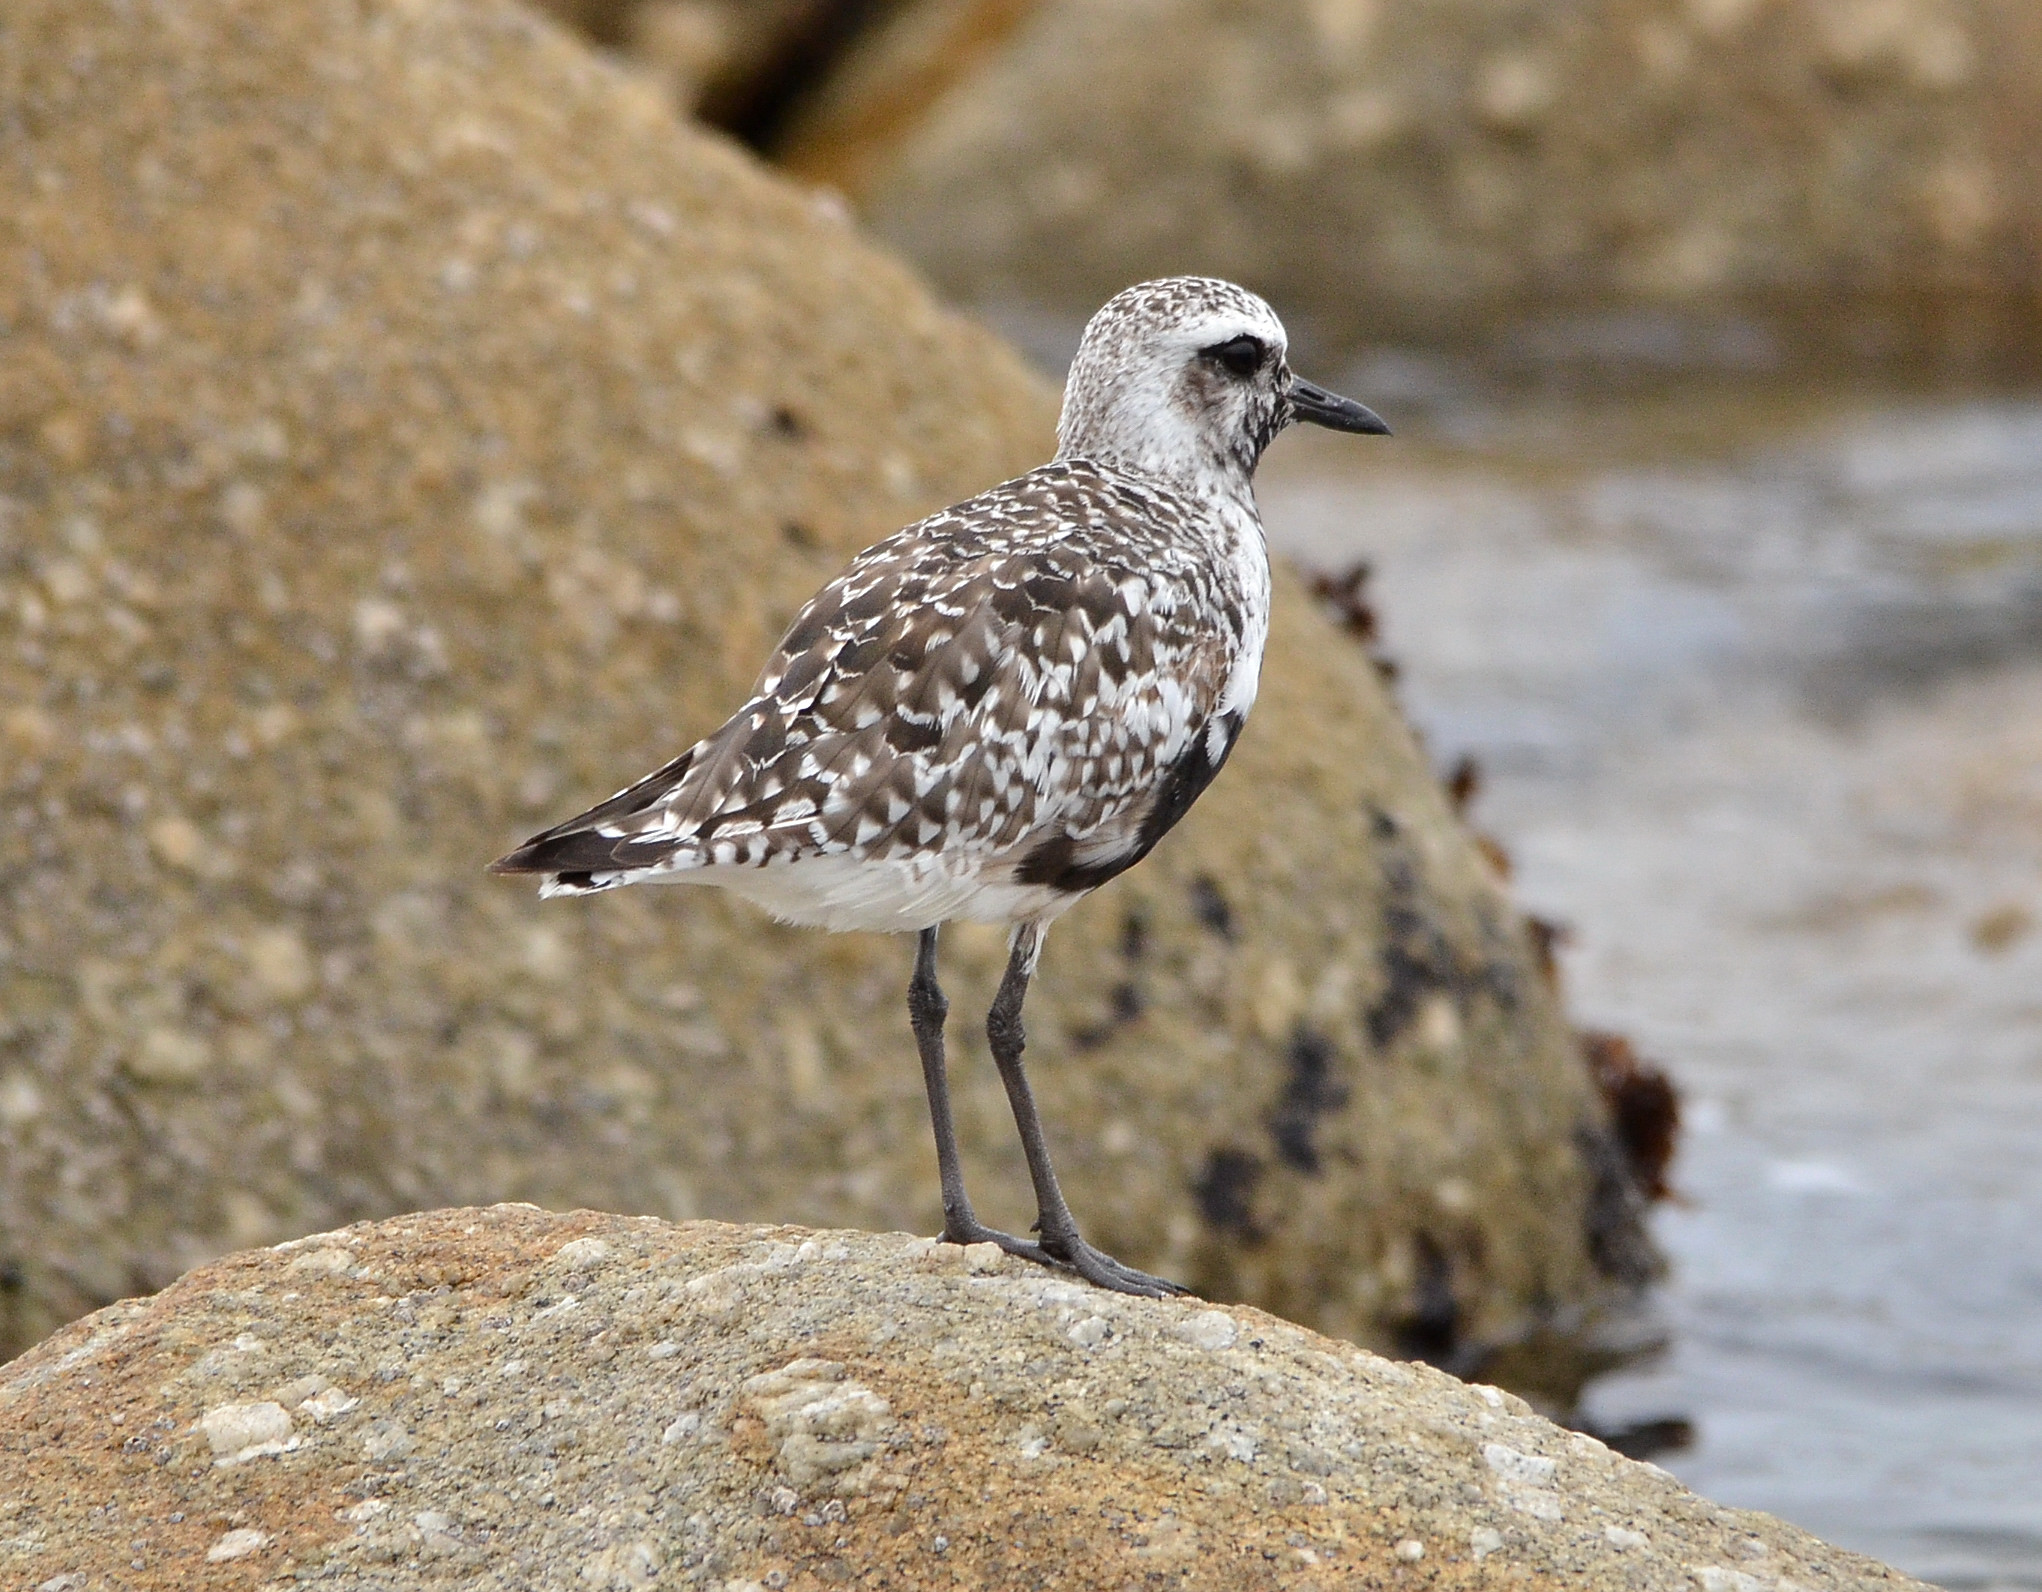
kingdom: Animalia
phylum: Chordata
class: Aves
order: Charadriiformes
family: Charadriidae
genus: Pluvialis
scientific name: Pluvialis squatarola
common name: Grey plover
